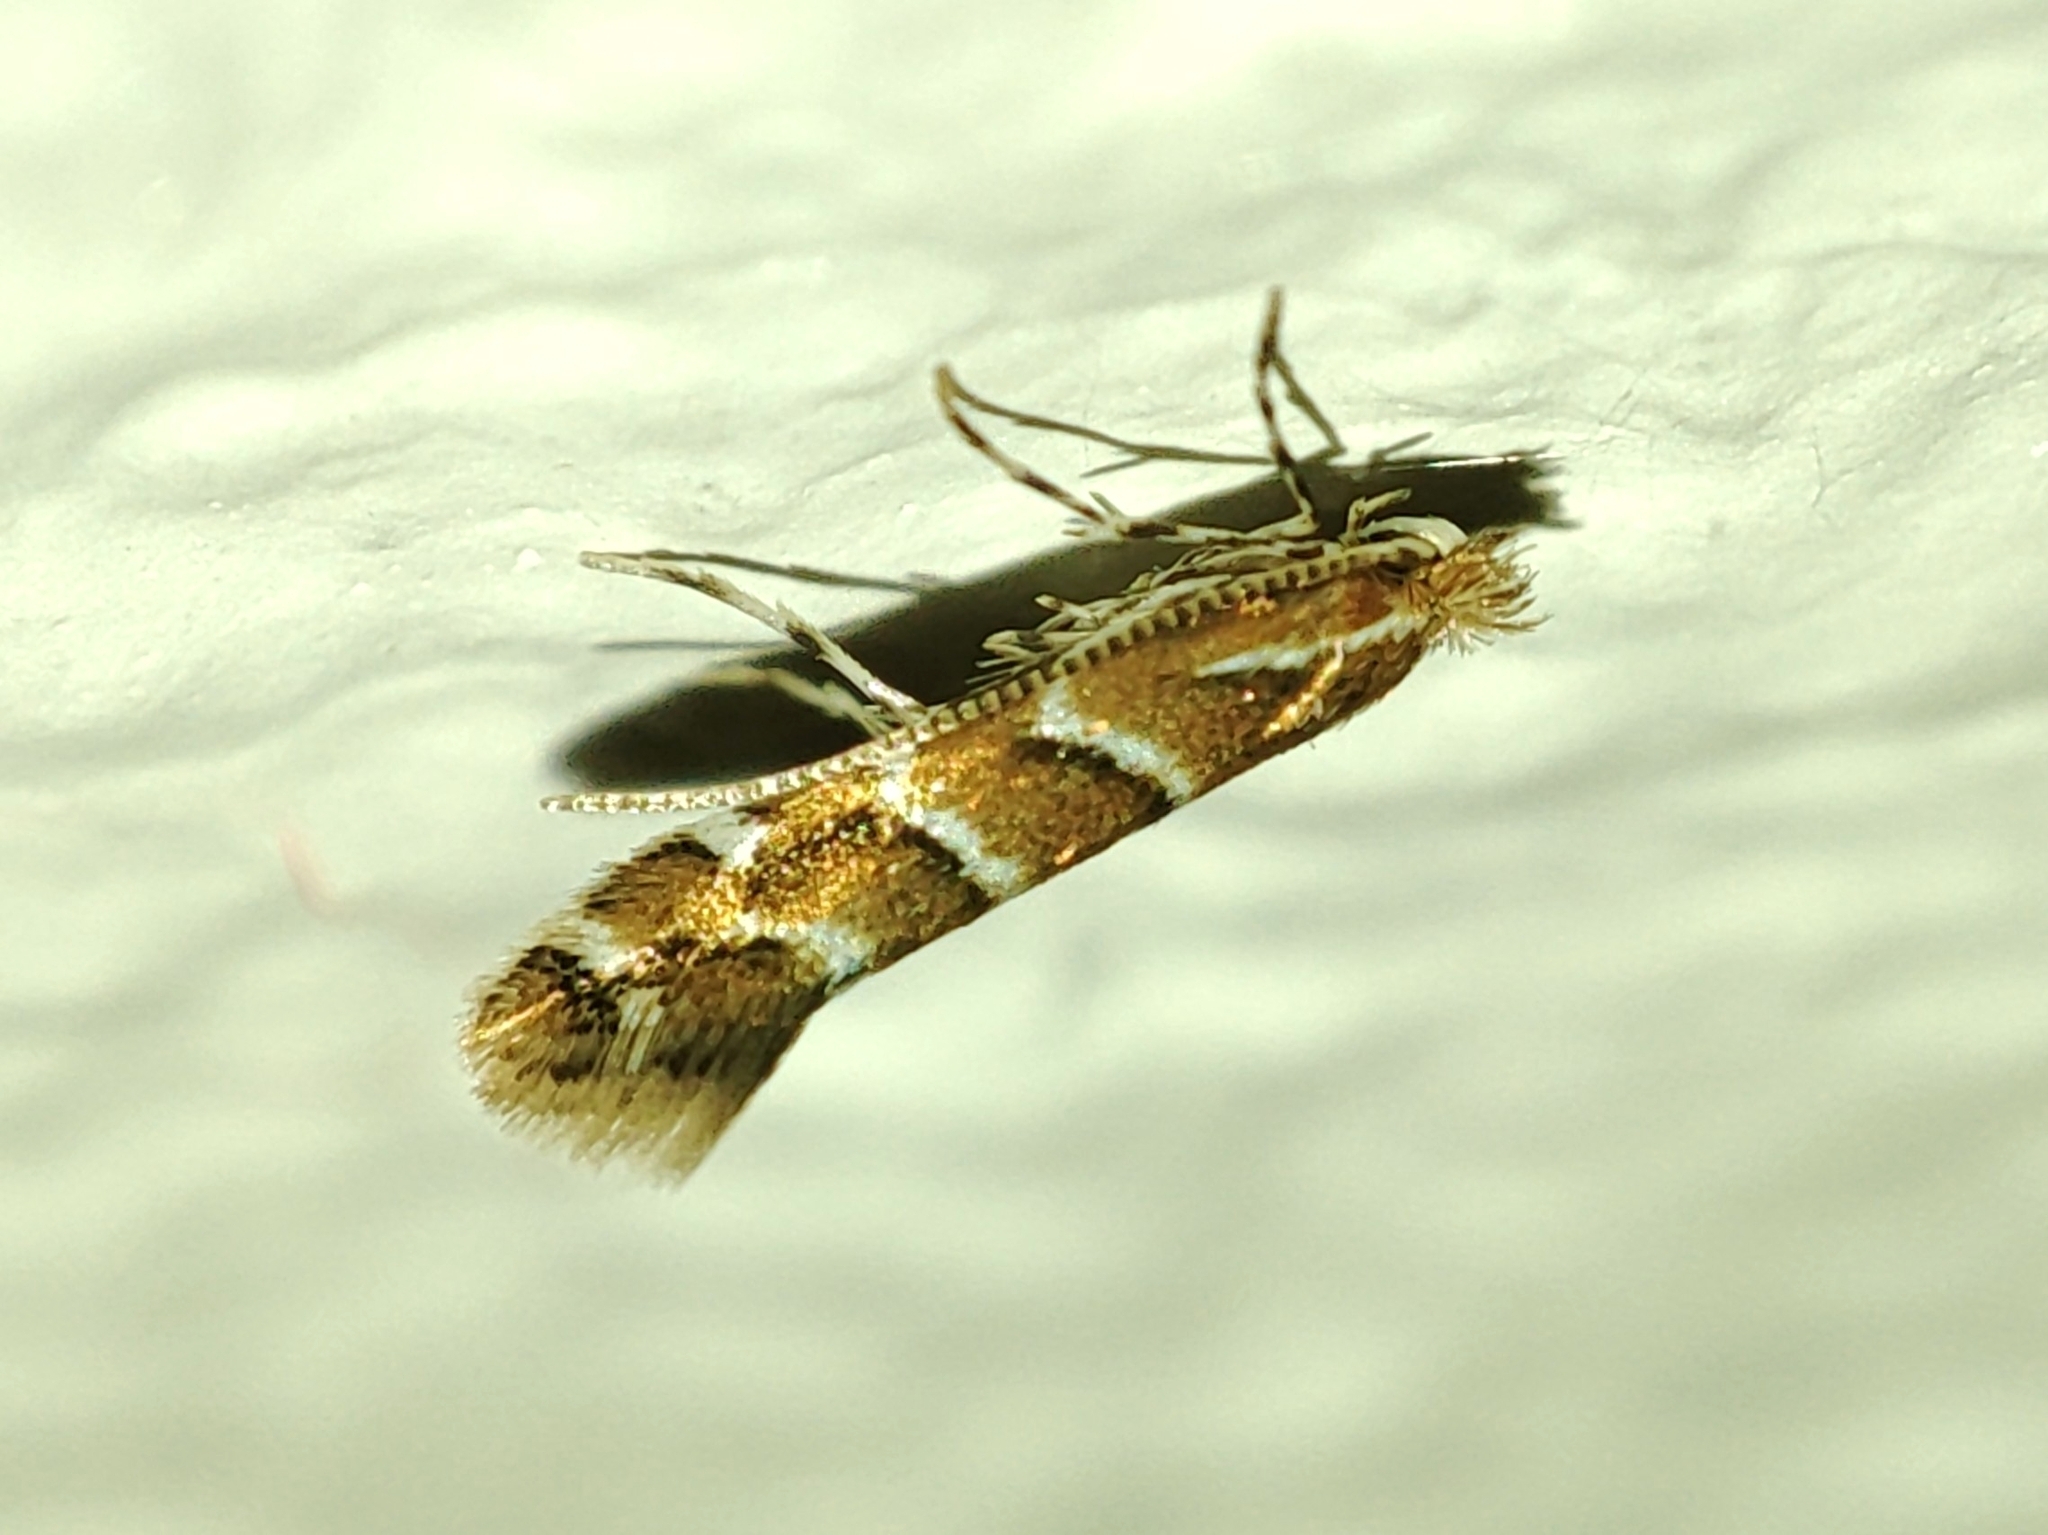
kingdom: Animalia
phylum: Arthropoda
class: Insecta
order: Lepidoptera
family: Gracillariidae
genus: Cameraria
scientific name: Cameraria ohridella
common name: Horse-chestnut leaf-miner
